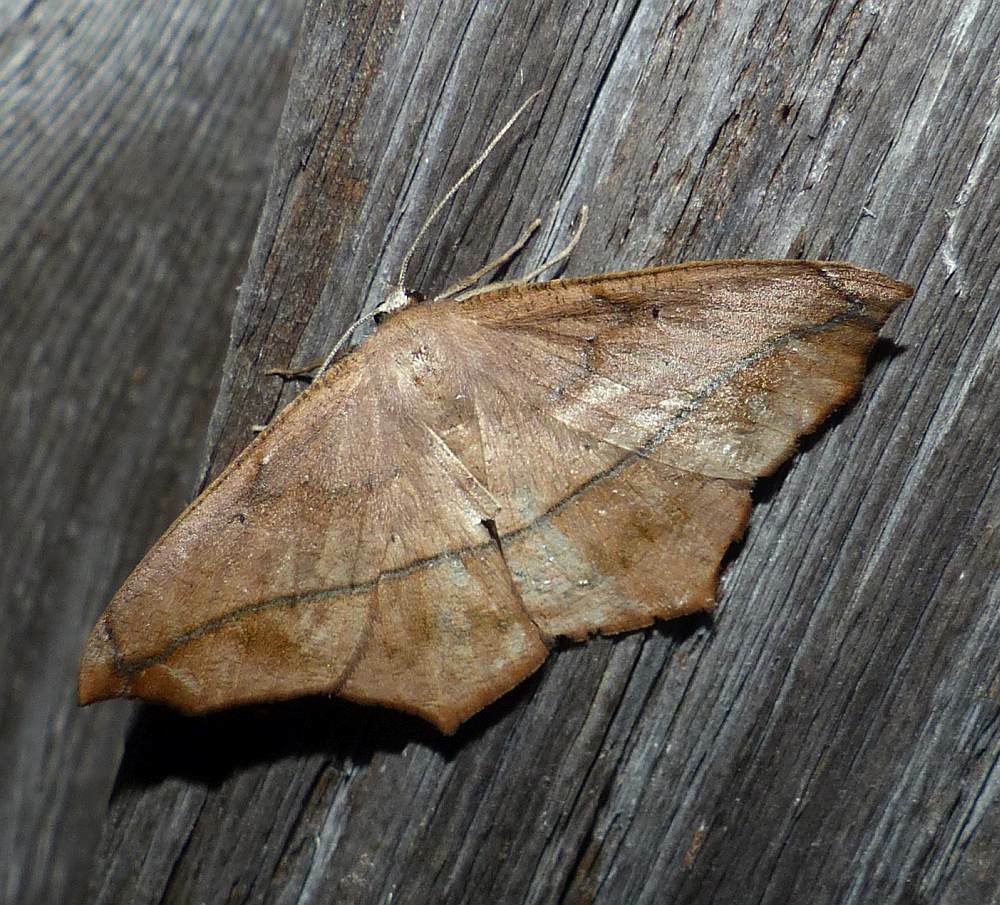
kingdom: Animalia
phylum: Arthropoda
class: Insecta
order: Lepidoptera
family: Geometridae
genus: Prochoerodes
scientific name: Prochoerodes lineola
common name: Large maple spanworm
